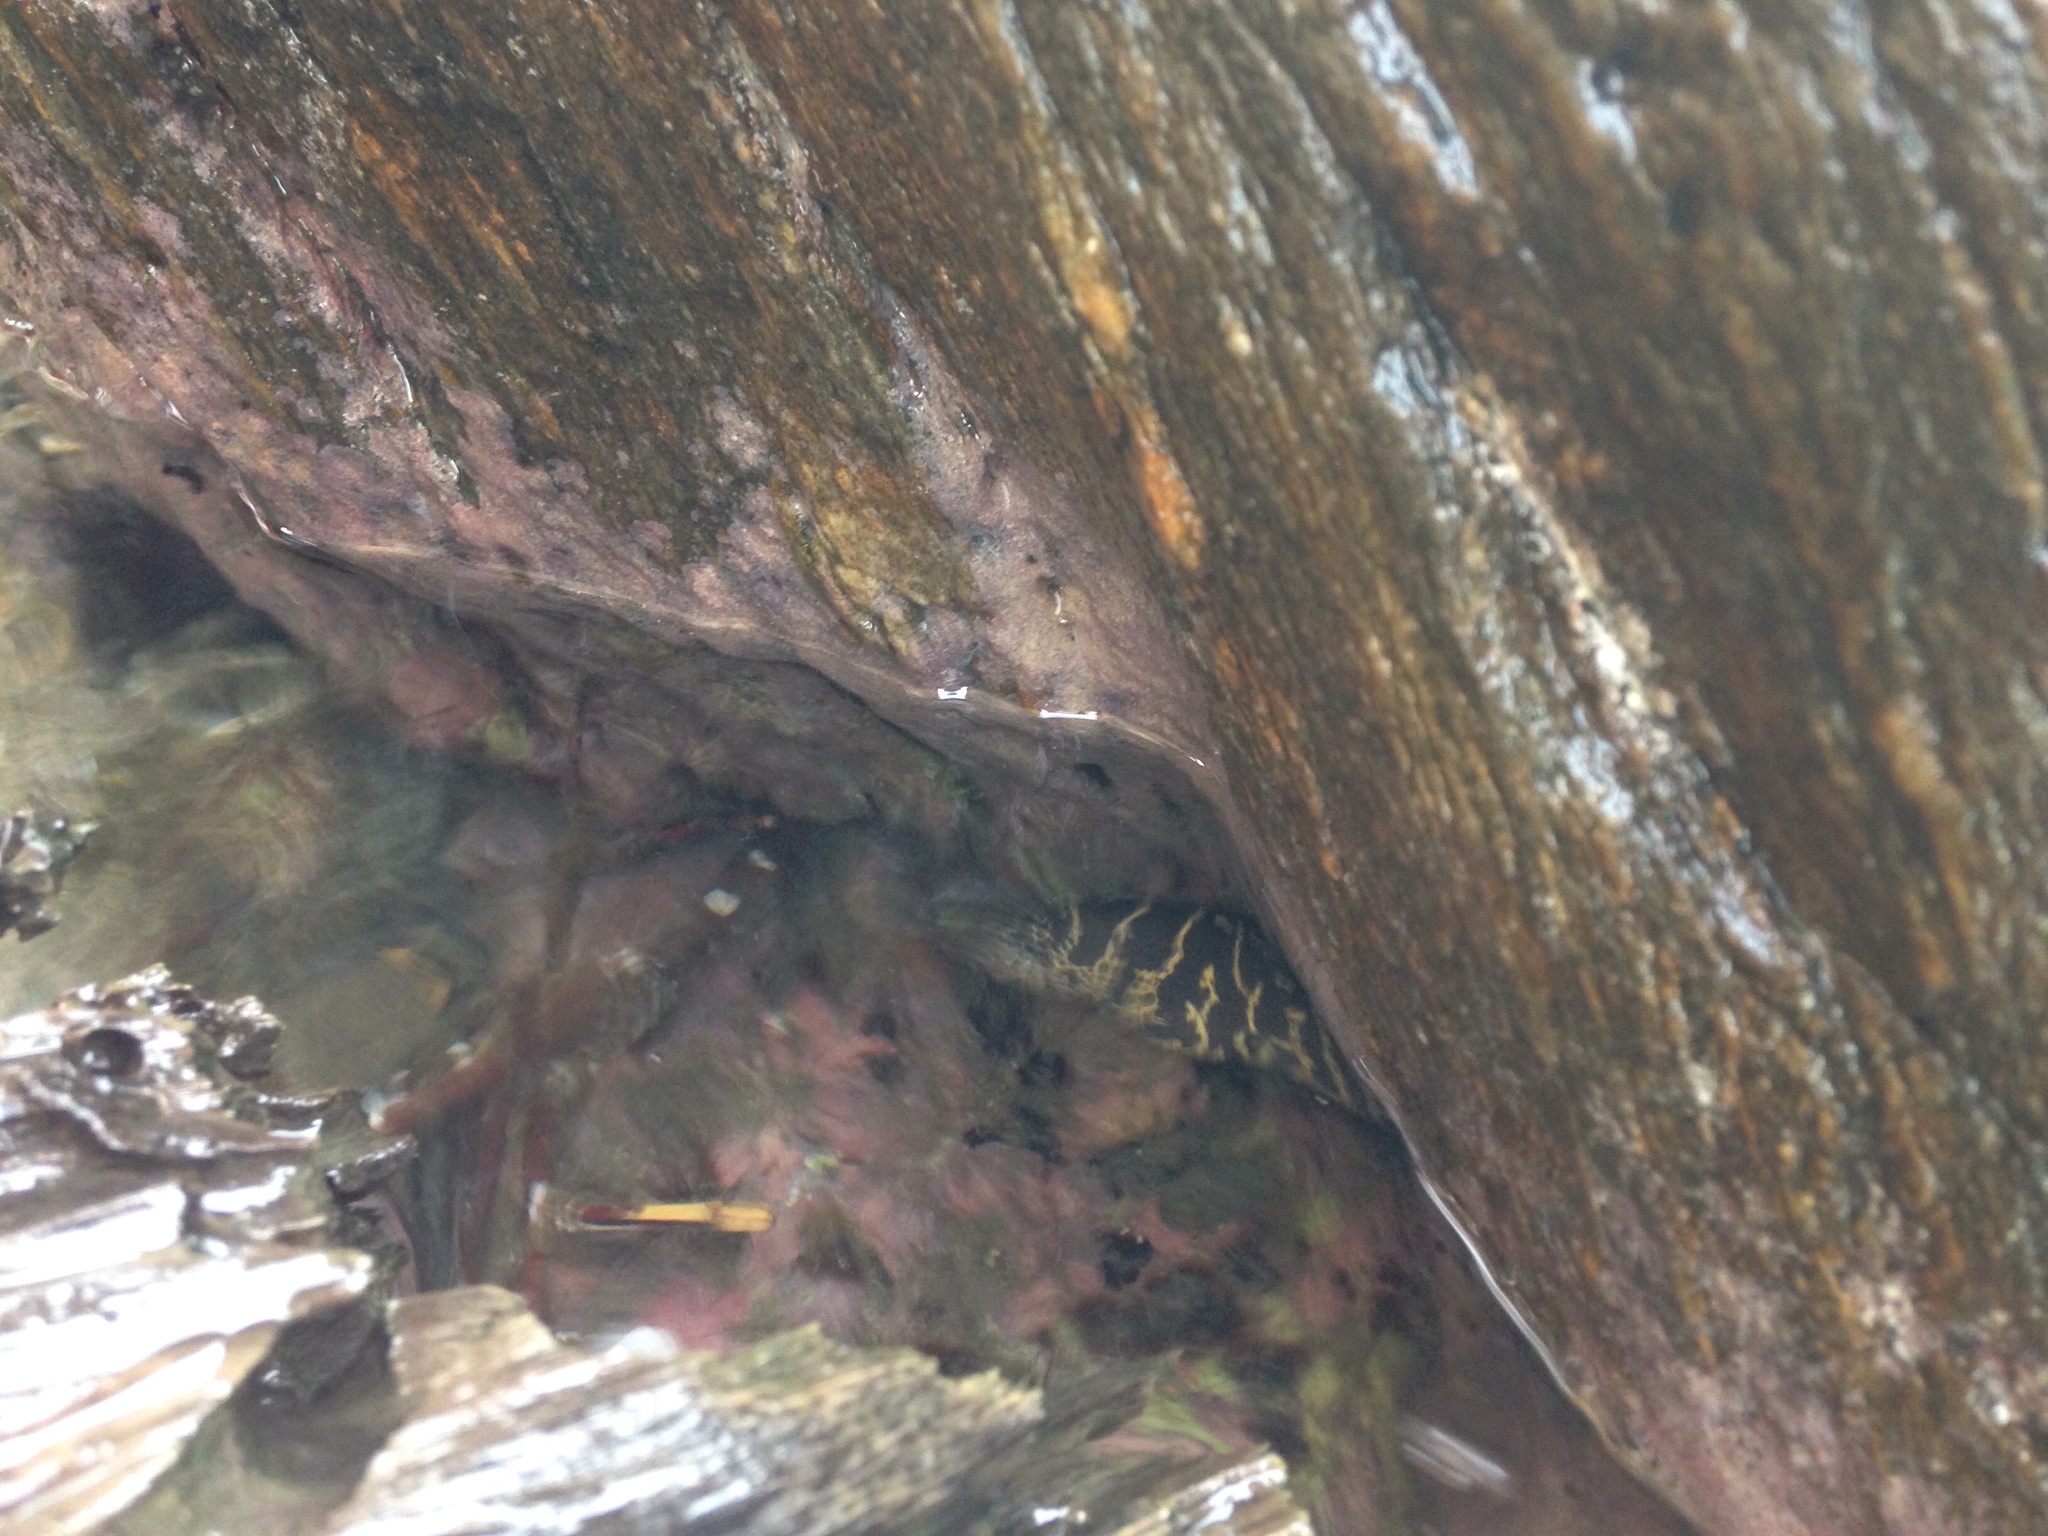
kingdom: Animalia
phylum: Chordata
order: Anguilliformes
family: Muraenidae
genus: Echidna
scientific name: Echidna catenata
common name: Chain moray
